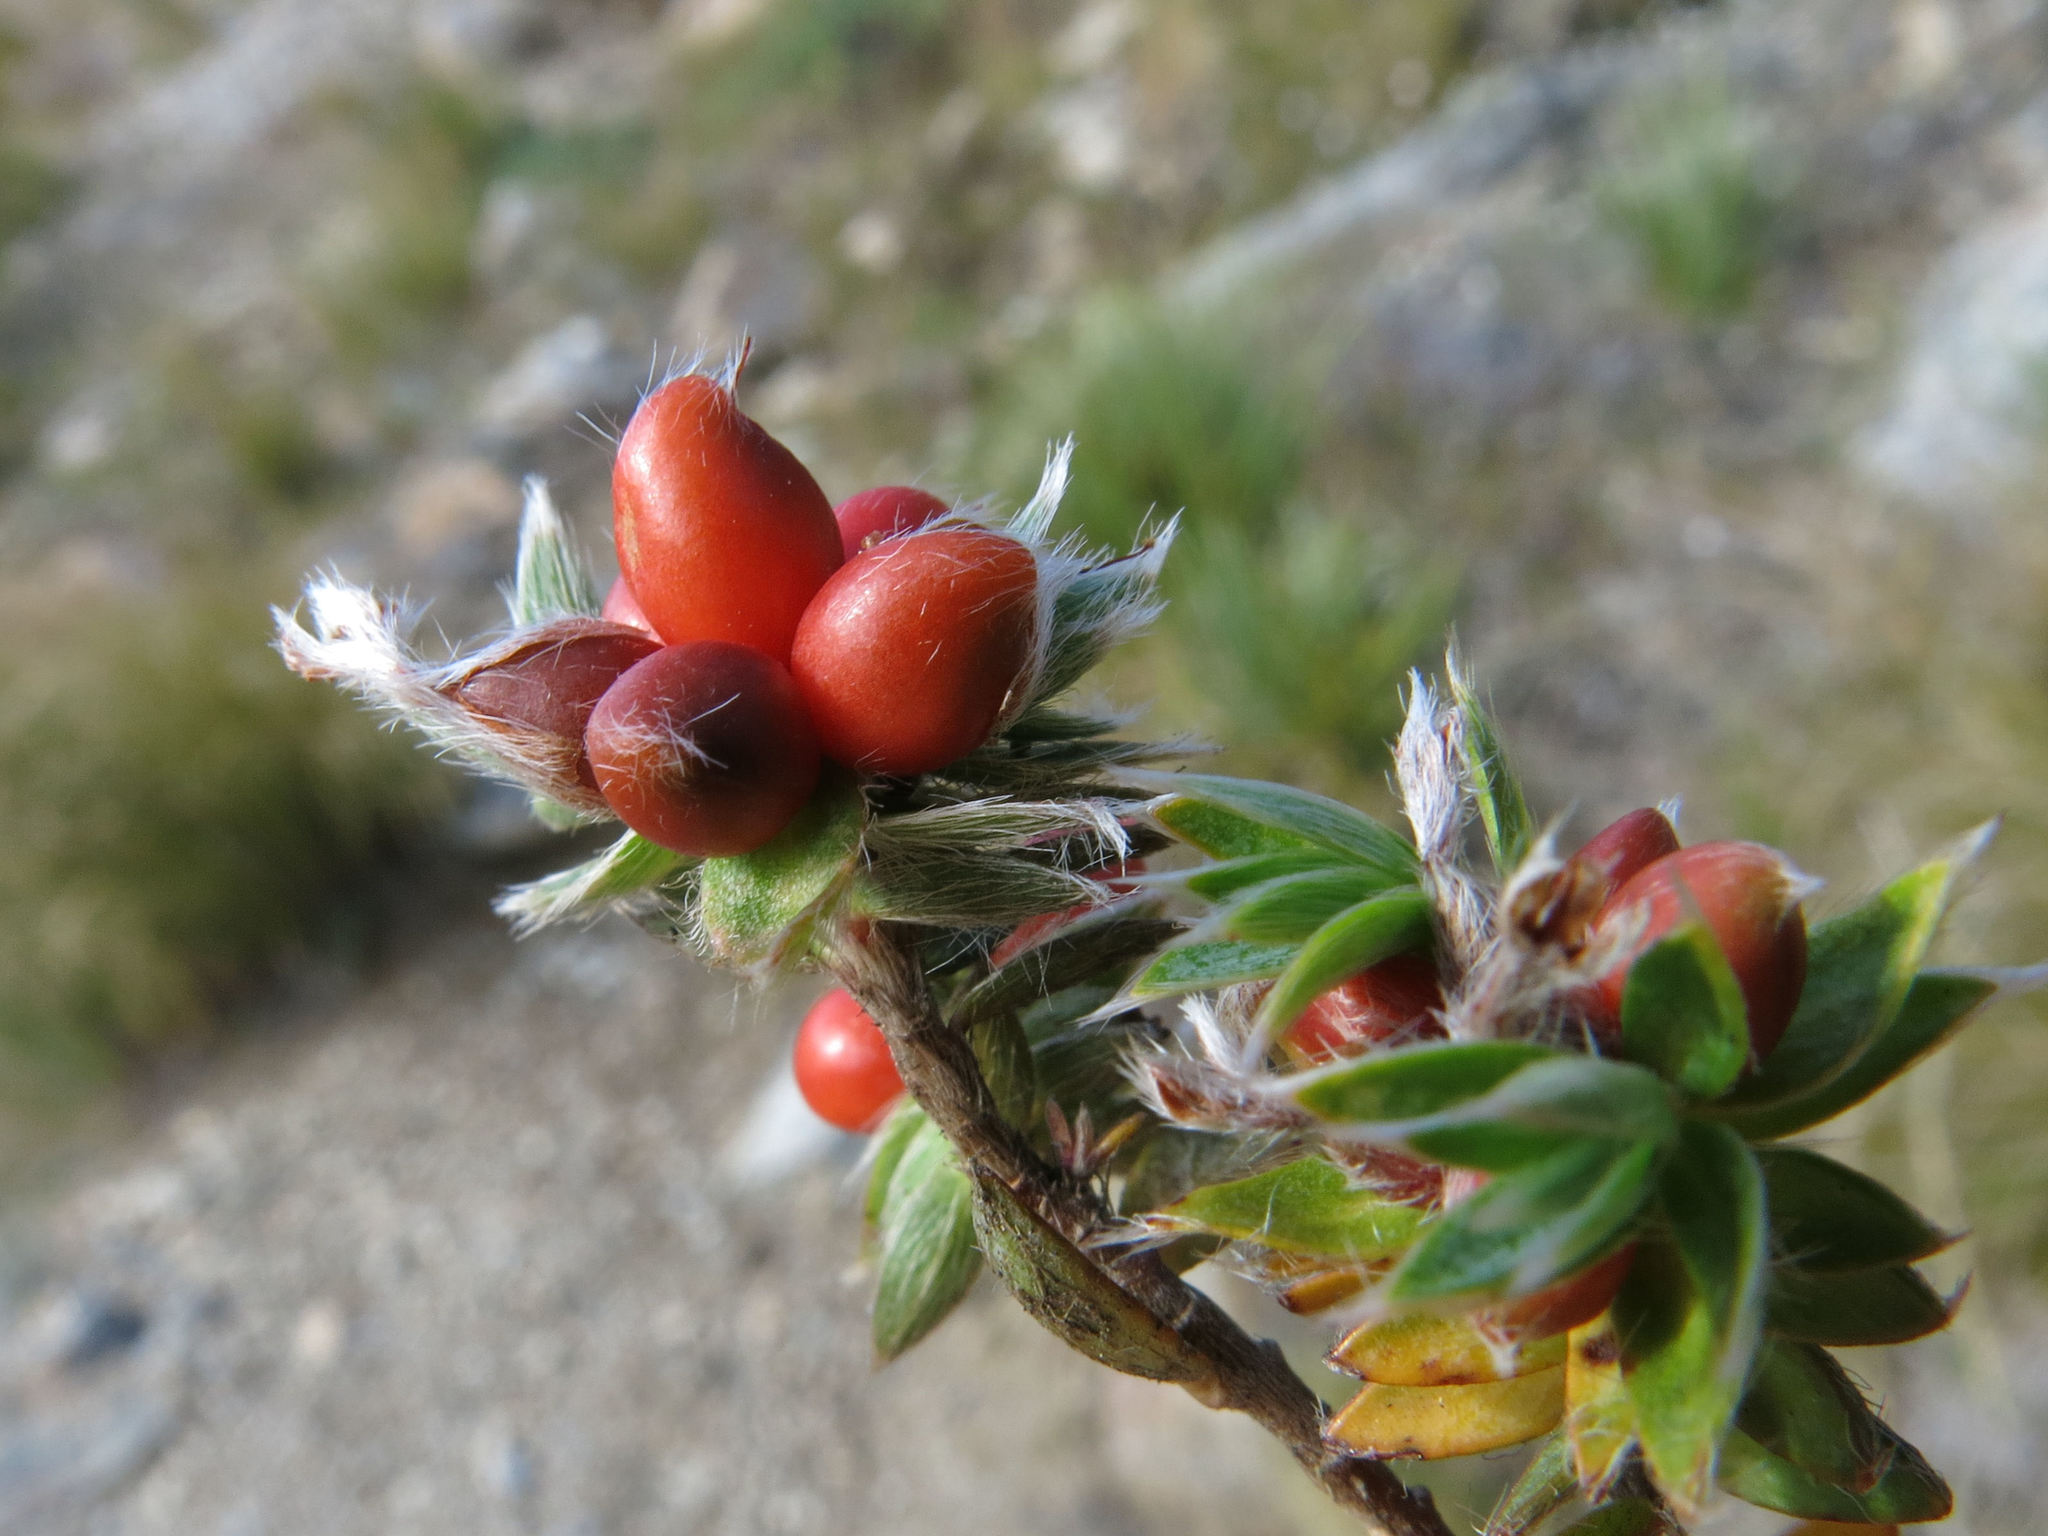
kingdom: Plantae
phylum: Tracheophyta
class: Magnoliopsida
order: Malvales
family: Thymelaeaceae
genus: Pimelea
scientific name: Pimelea pseudolyallii
